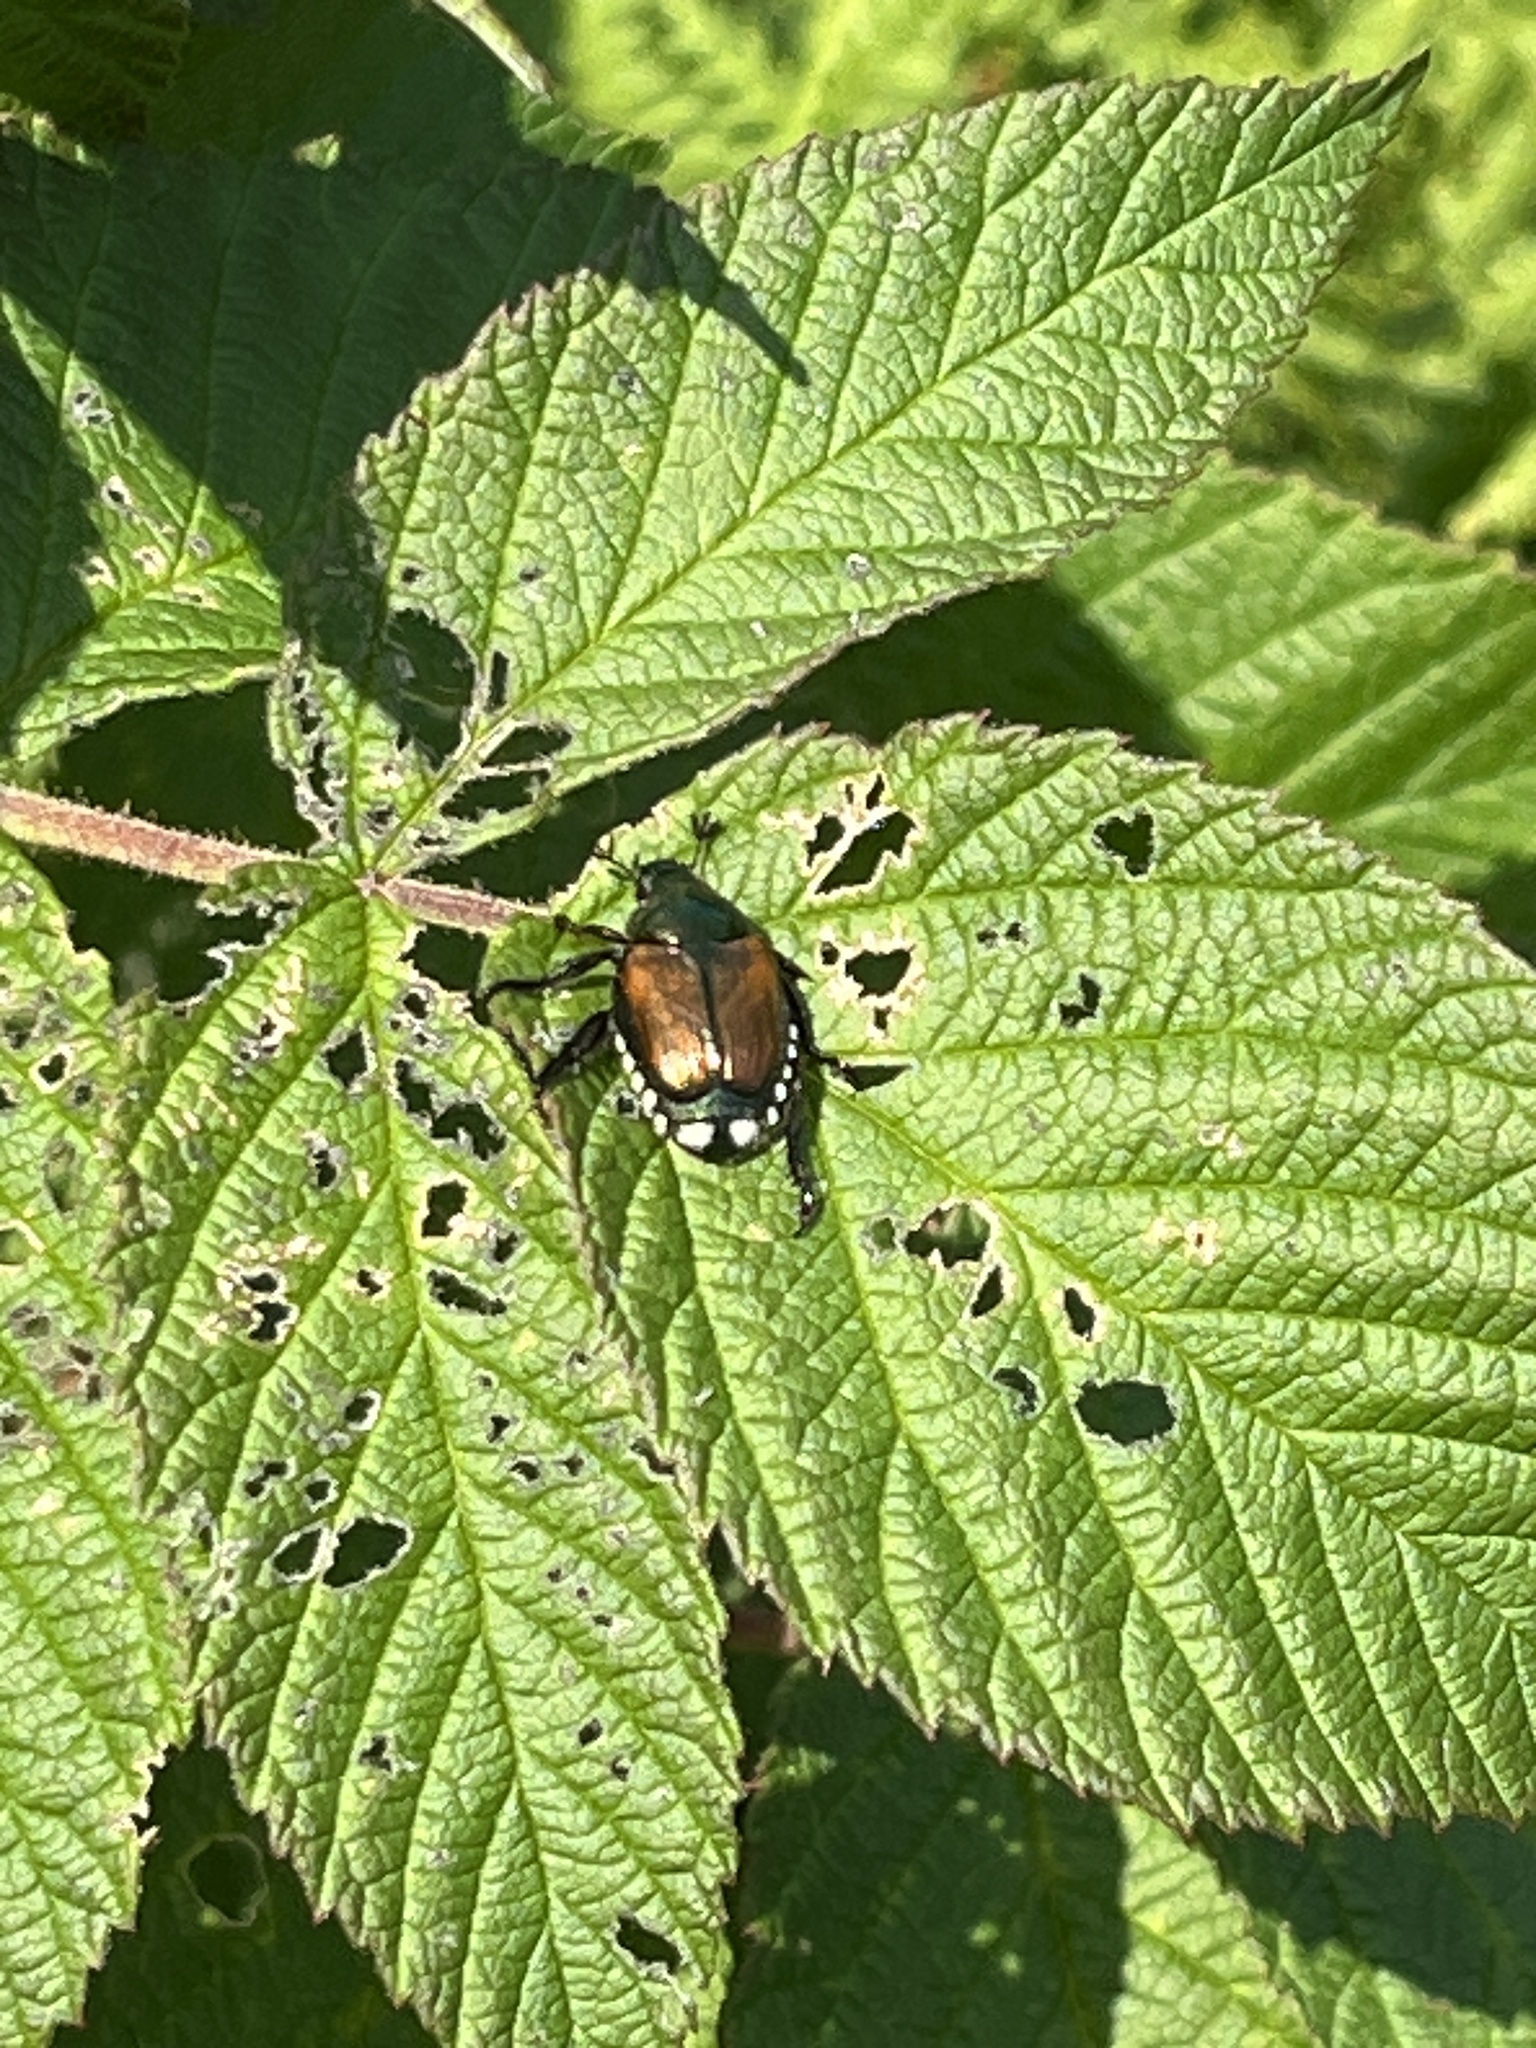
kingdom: Animalia
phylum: Arthropoda
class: Insecta
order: Coleoptera
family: Scarabaeidae
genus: Popillia
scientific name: Popillia japonica
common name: Japanese beetle
